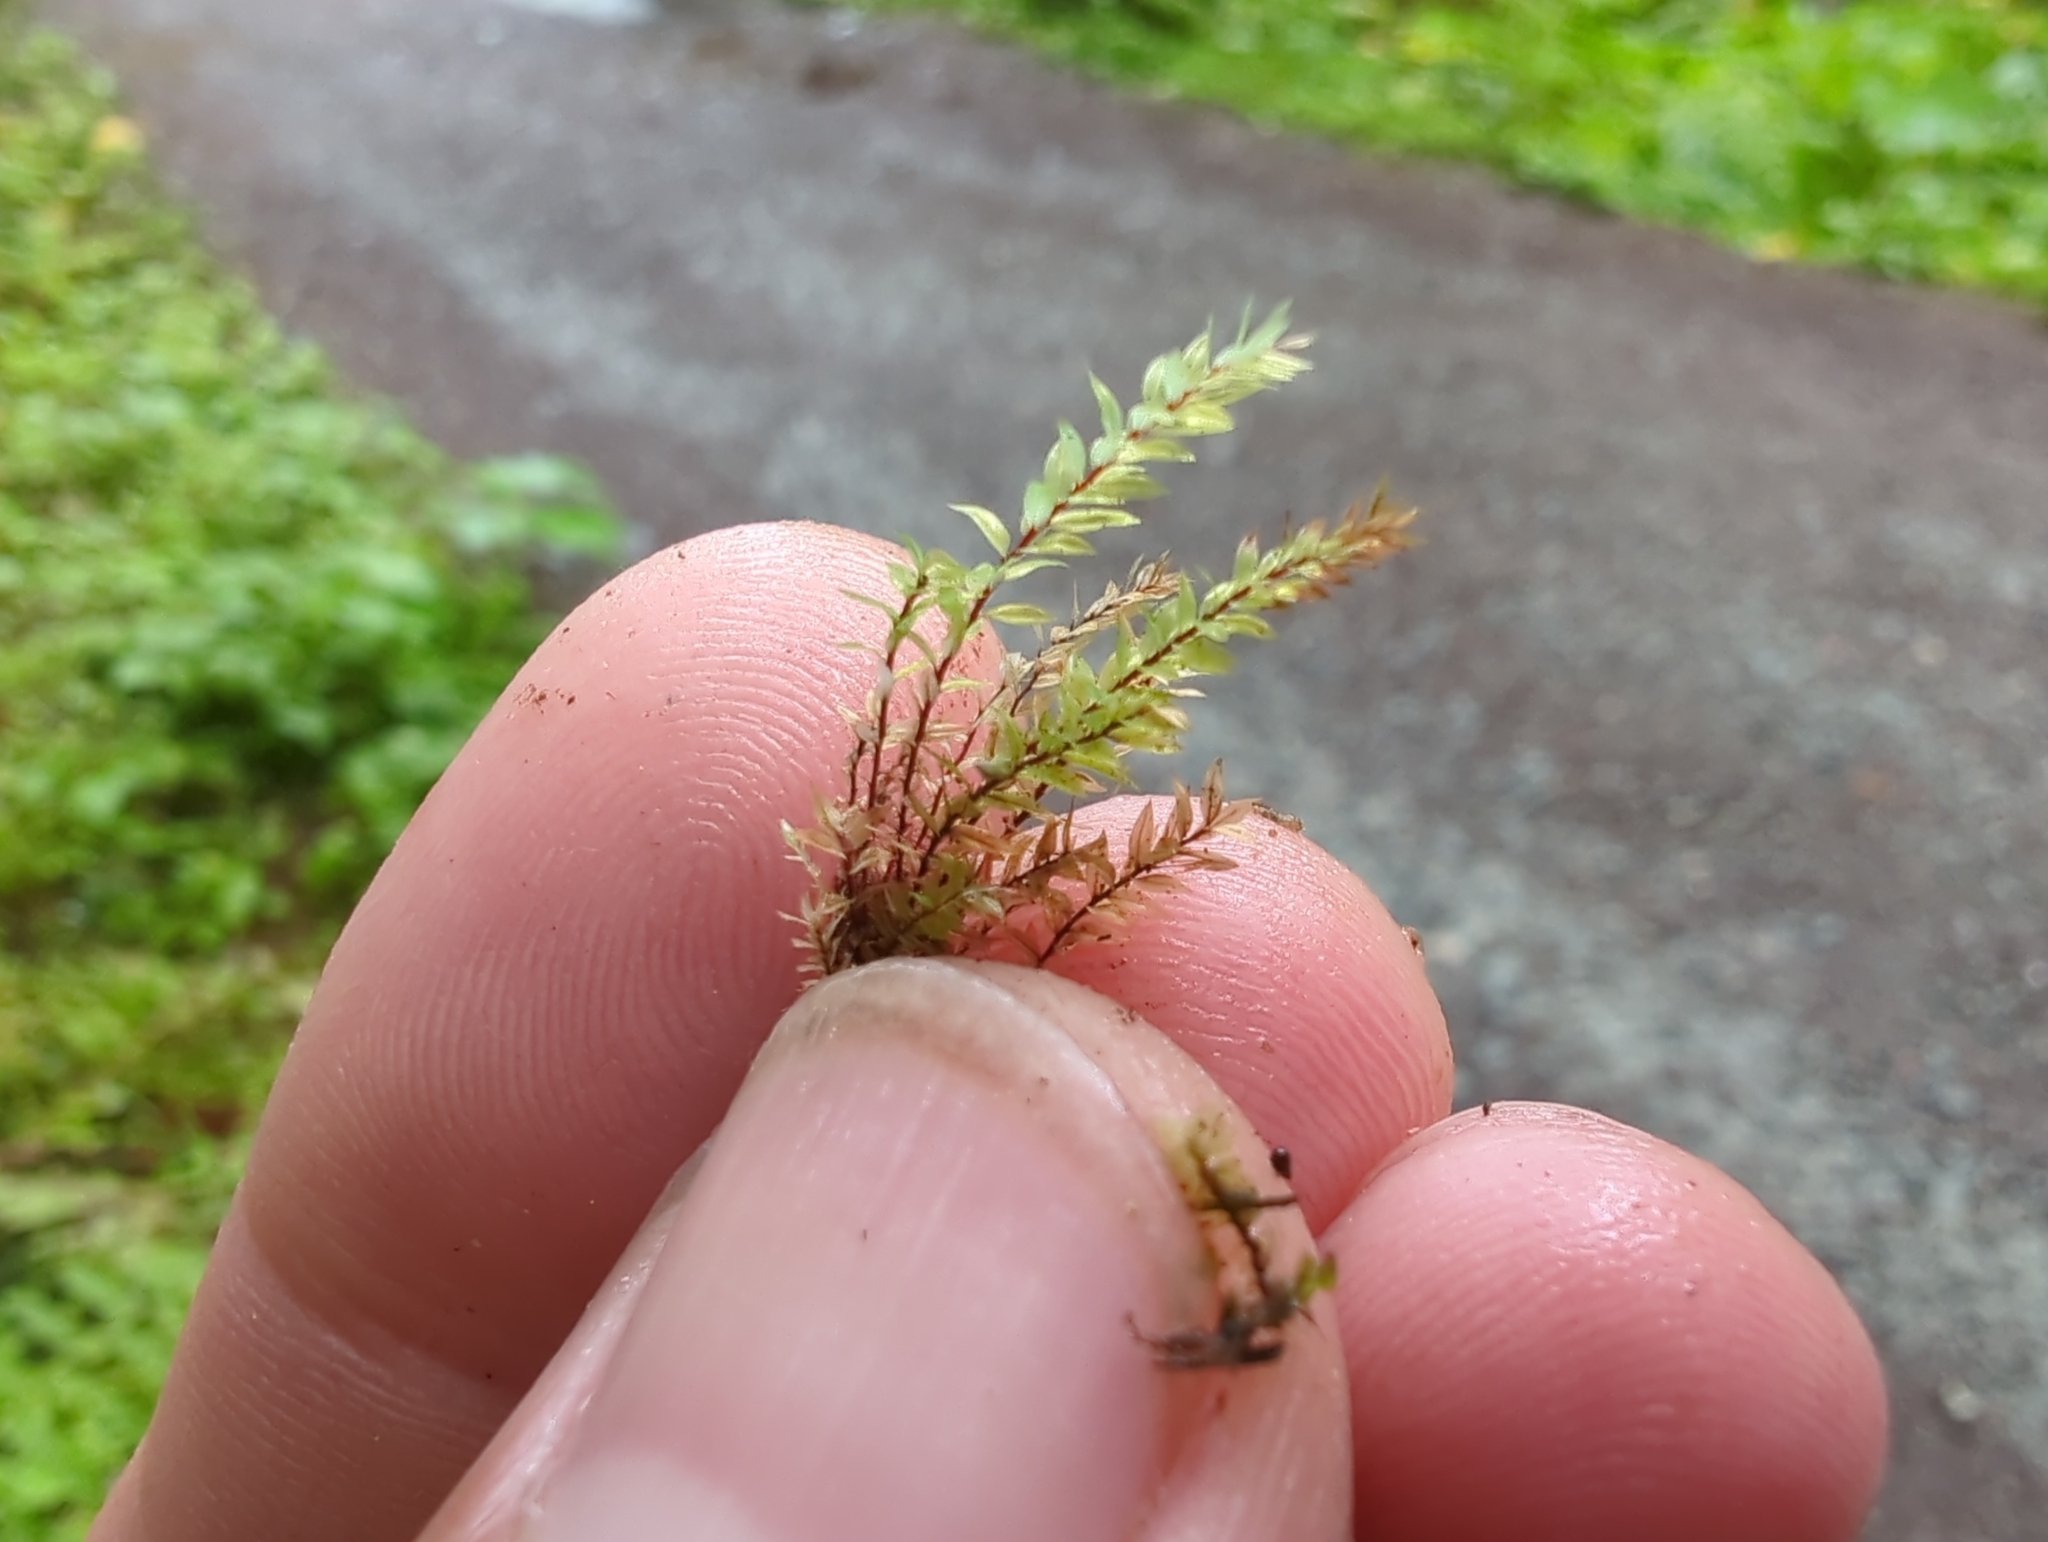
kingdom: Plantae
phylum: Bryophyta
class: Bryopsida
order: Bryales
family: Mniaceae
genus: Pohlia
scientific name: Pohlia wahlenbergii
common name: Wahlenberg's nodding moss
